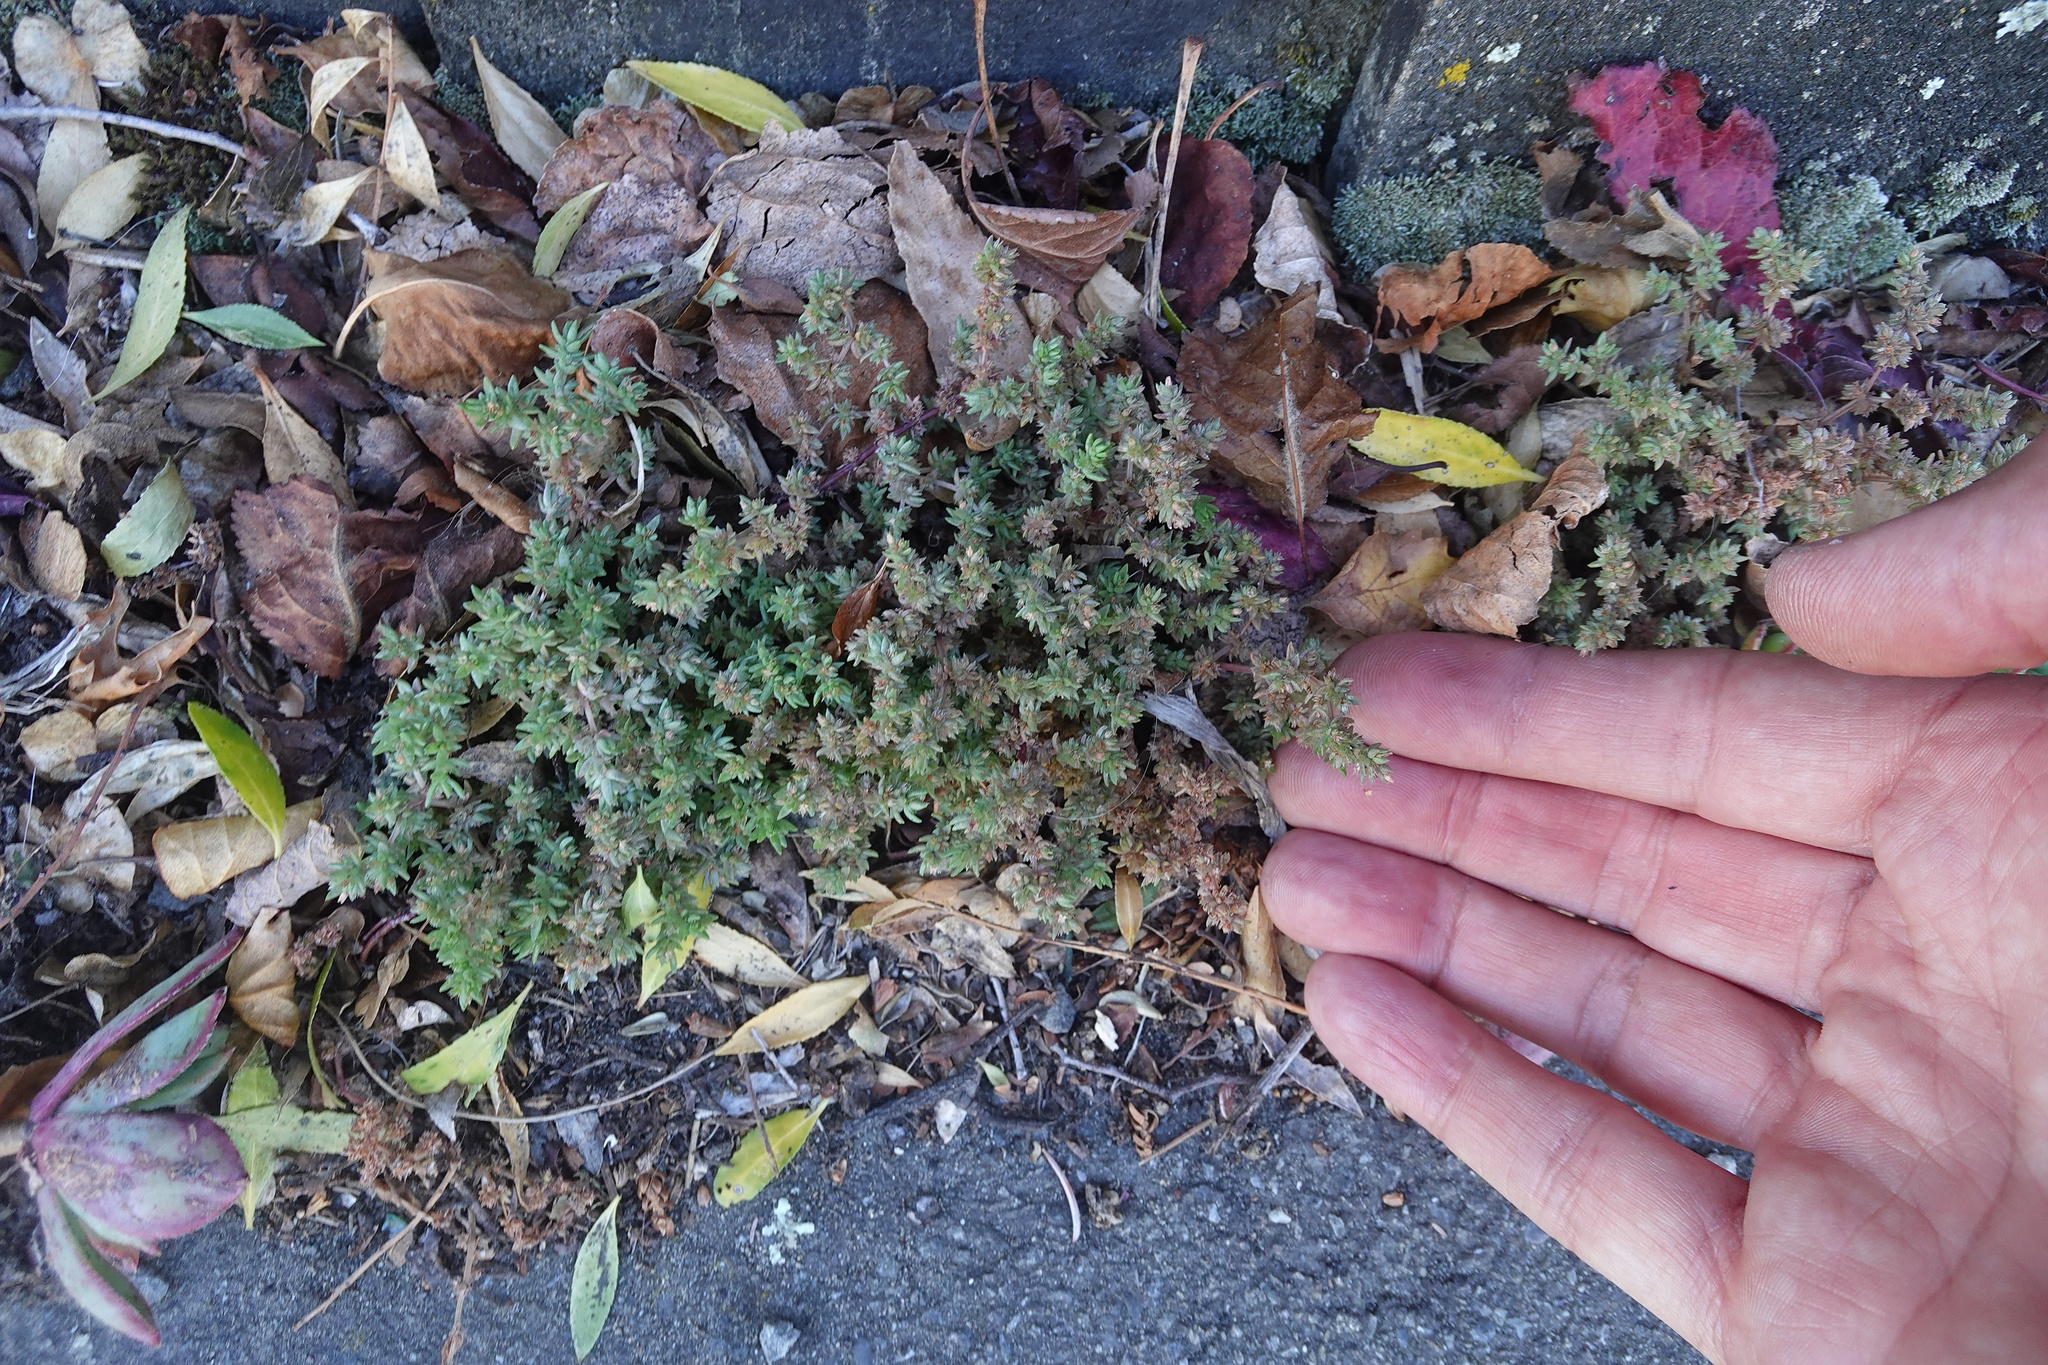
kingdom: Plantae
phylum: Tracheophyta
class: Magnoliopsida
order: Caryophyllales
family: Caryophyllaceae
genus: Polycarpon
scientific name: Polycarpon tetraphyllum
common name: Four-leaved all-seed
